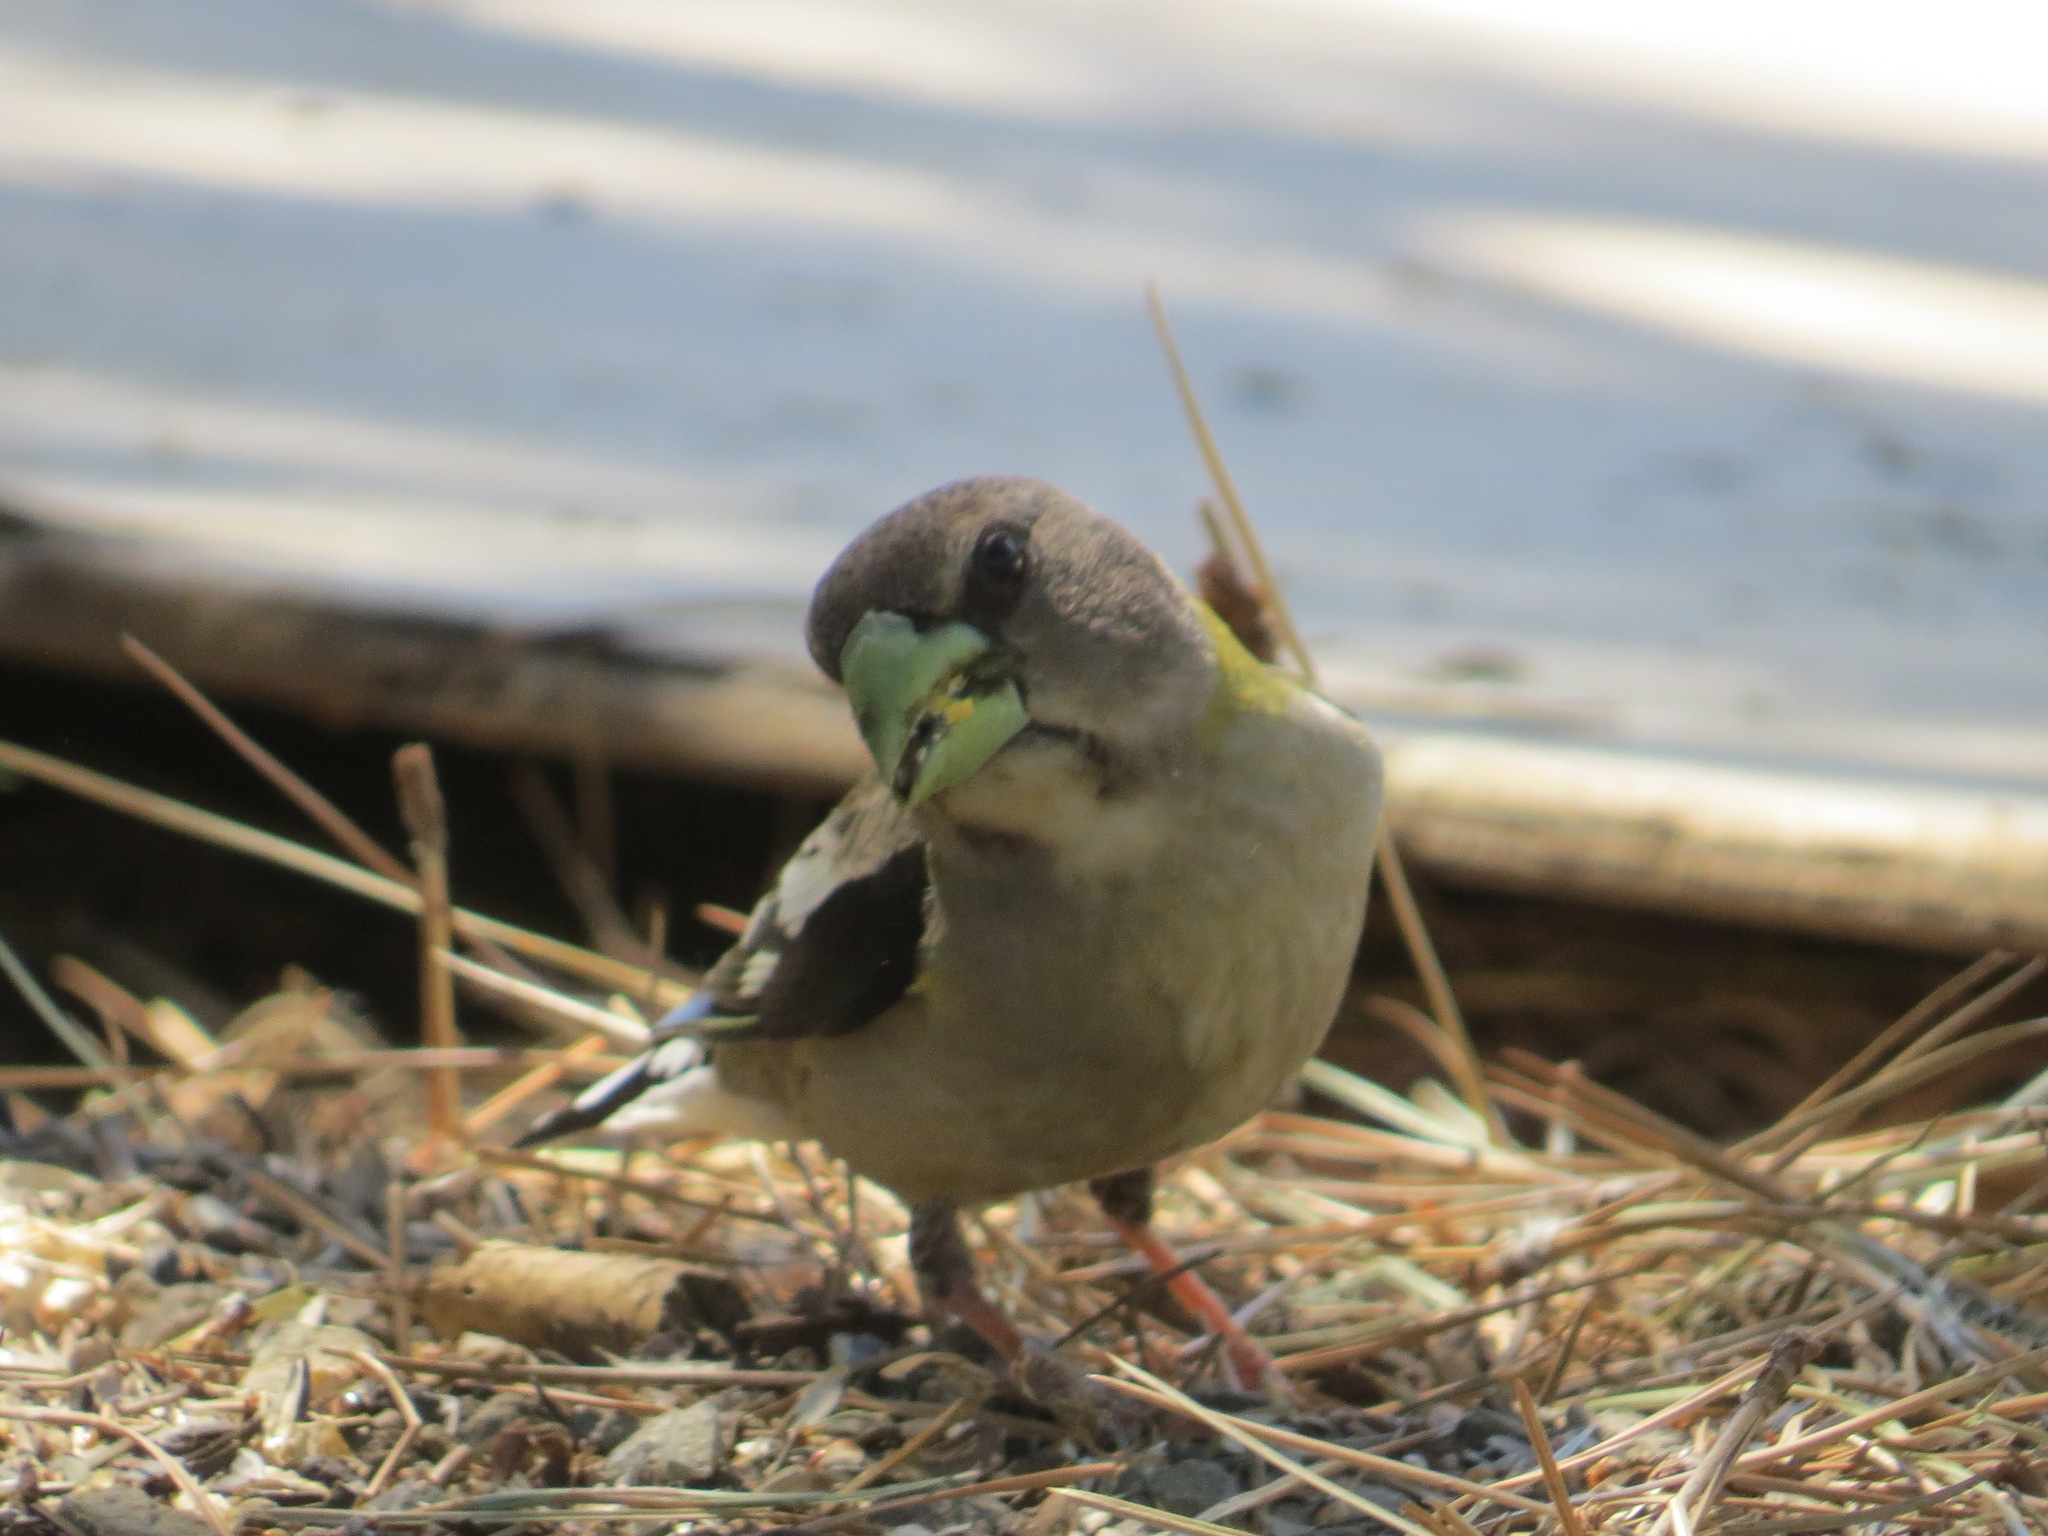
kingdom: Animalia
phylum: Chordata
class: Aves
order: Passeriformes
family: Fringillidae
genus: Hesperiphona
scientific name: Hesperiphona vespertina
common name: Evening grosbeak
